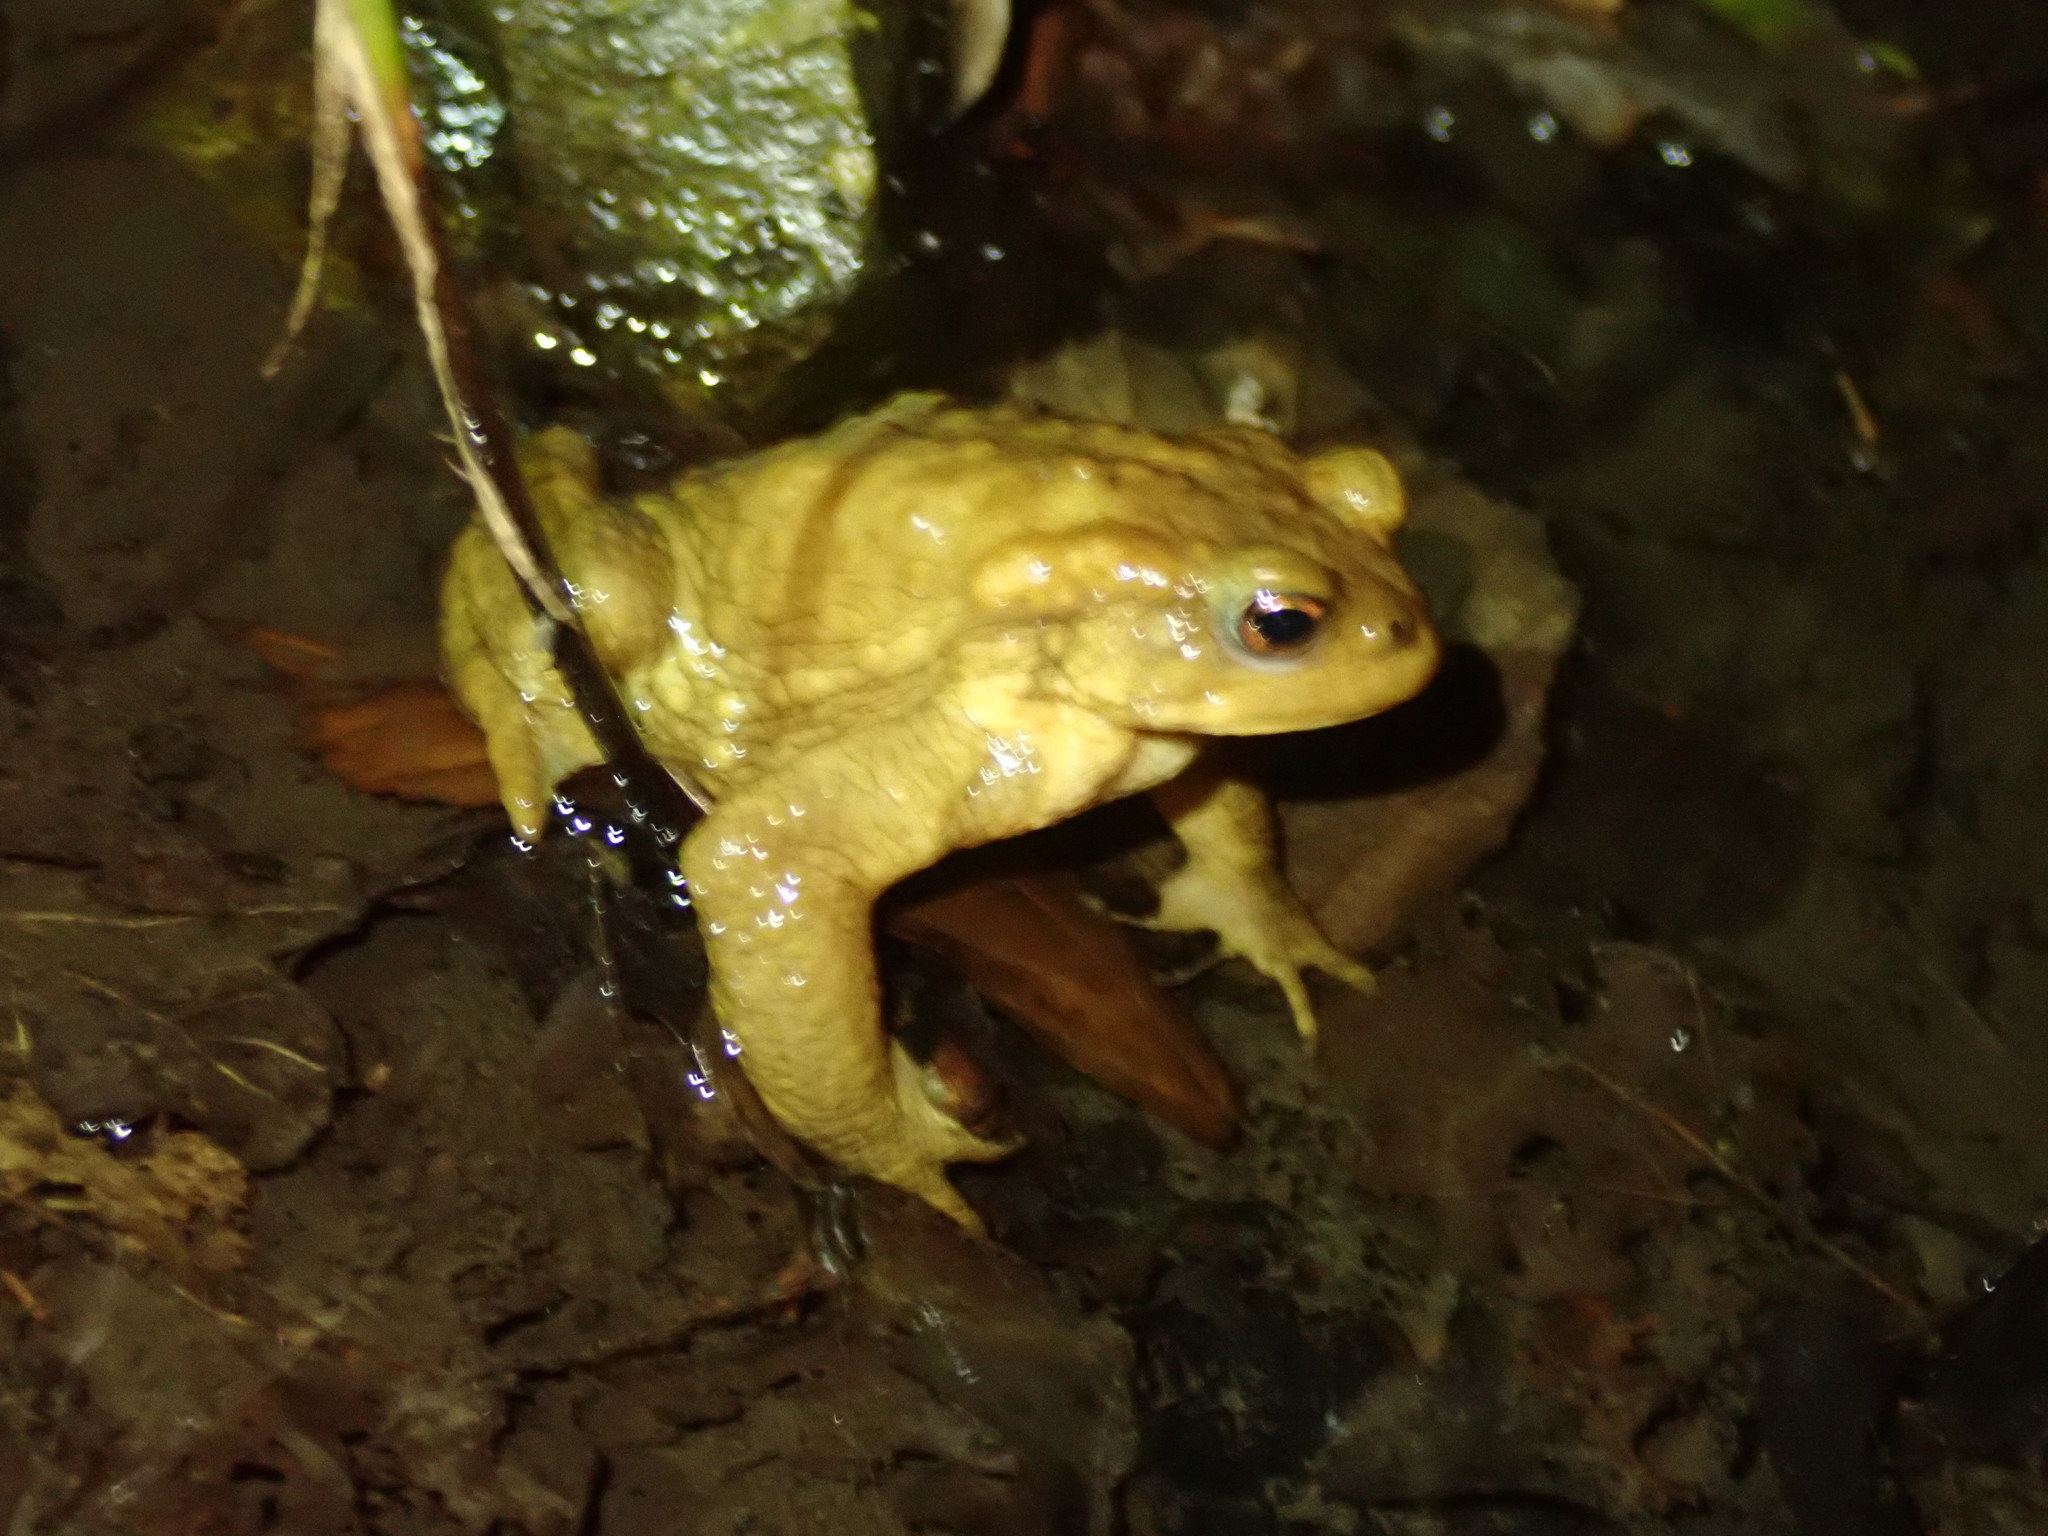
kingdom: Animalia
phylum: Chordata
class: Amphibia
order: Anura
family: Bufonidae
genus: Bufo
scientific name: Bufo spinosus
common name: Western common toad
